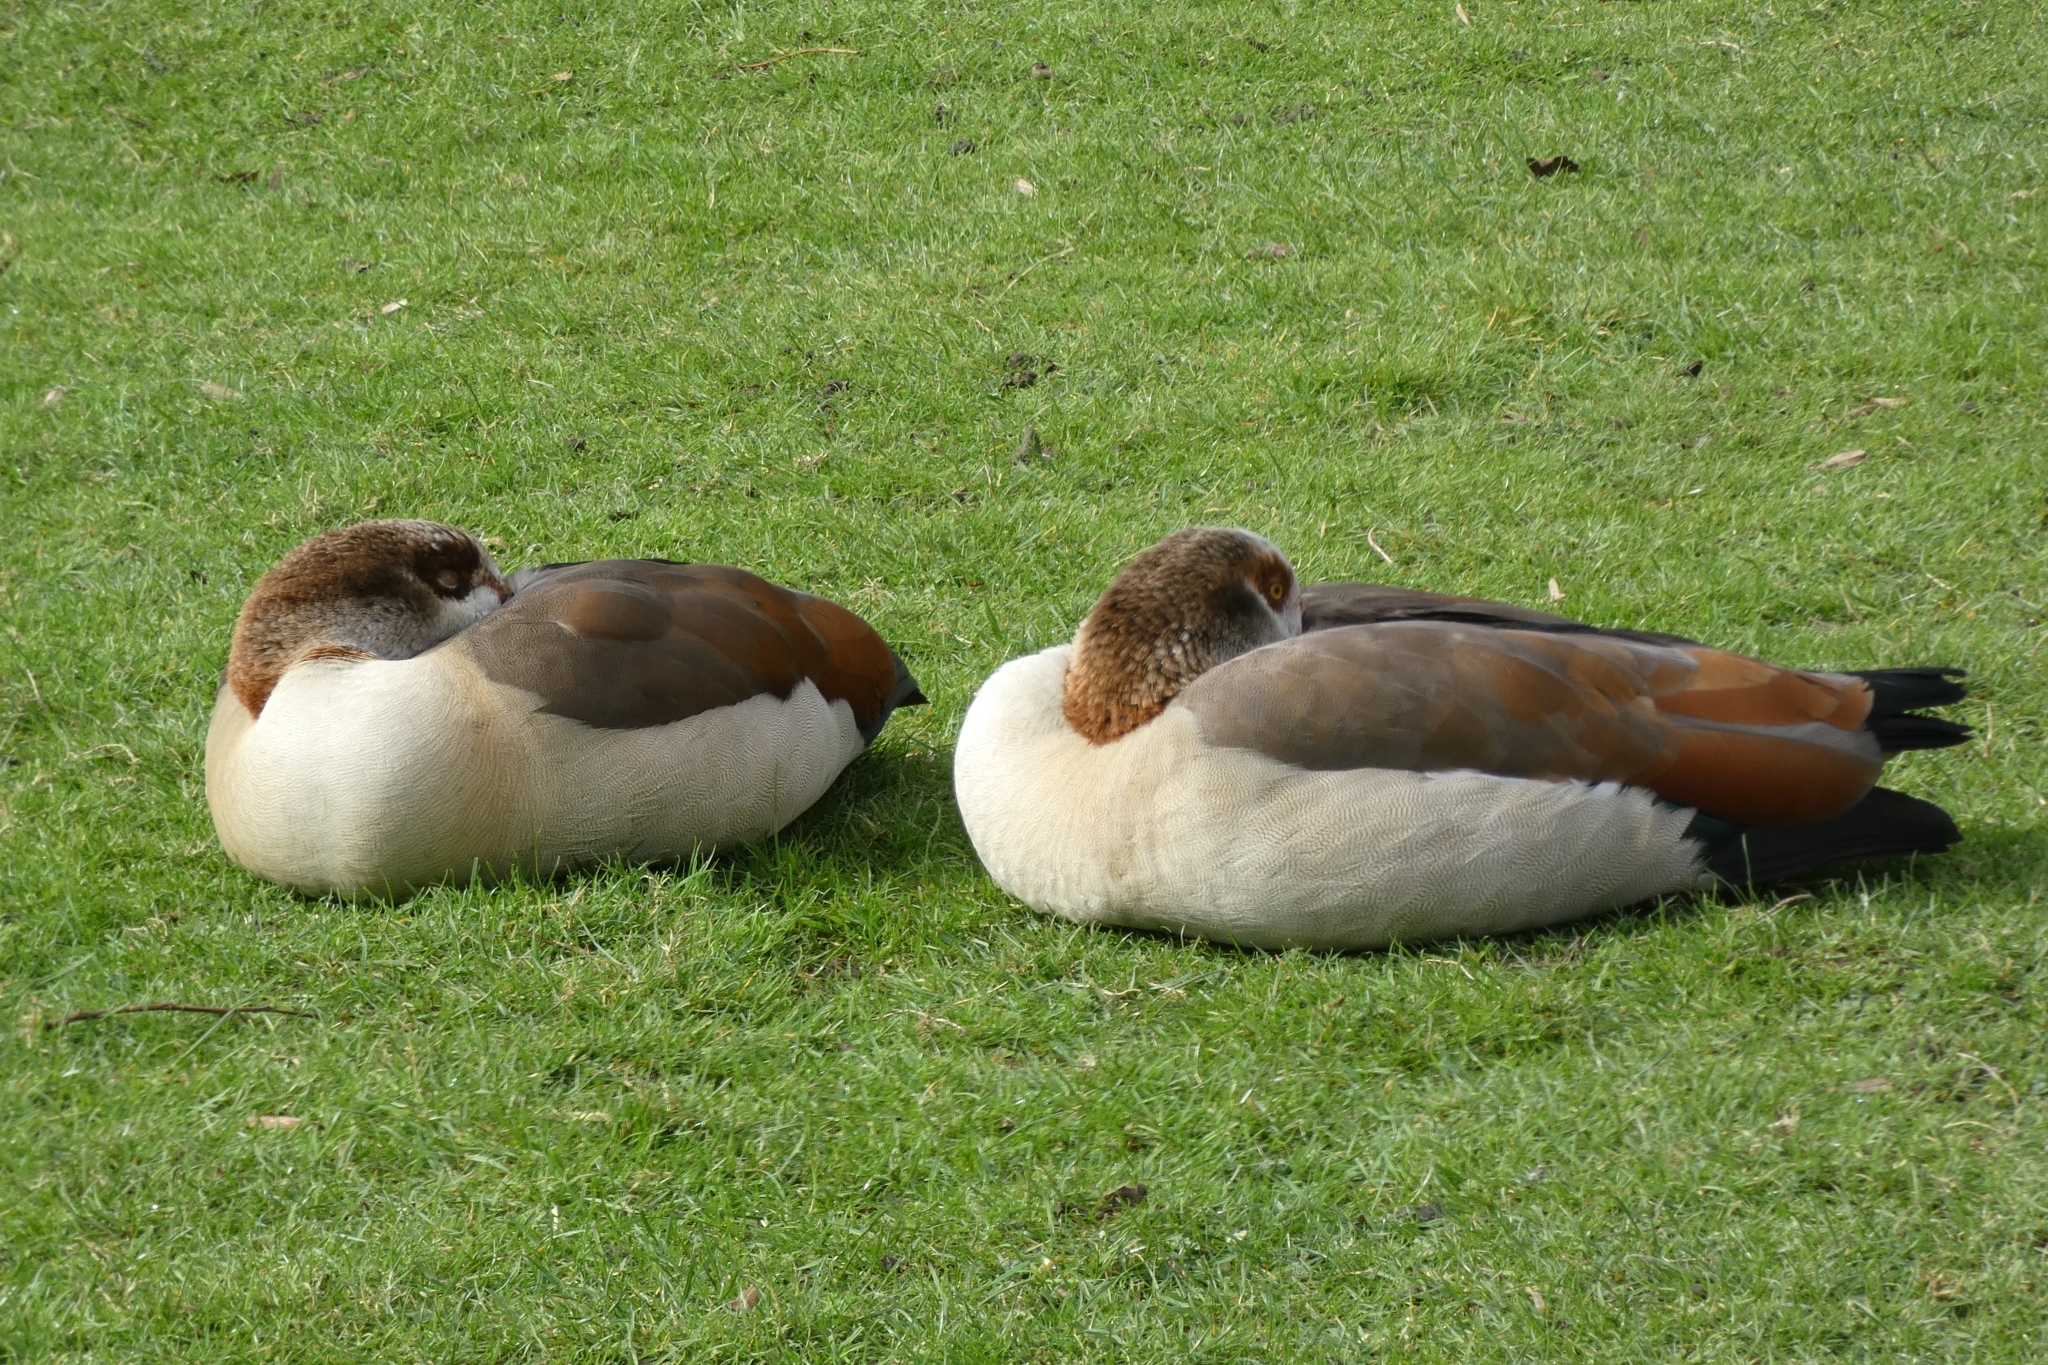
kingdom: Animalia
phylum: Chordata
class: Aves
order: Anseriformes
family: Anatidae
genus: Alopochen
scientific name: Alopochen aegyptiaca
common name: Egyptian goose
